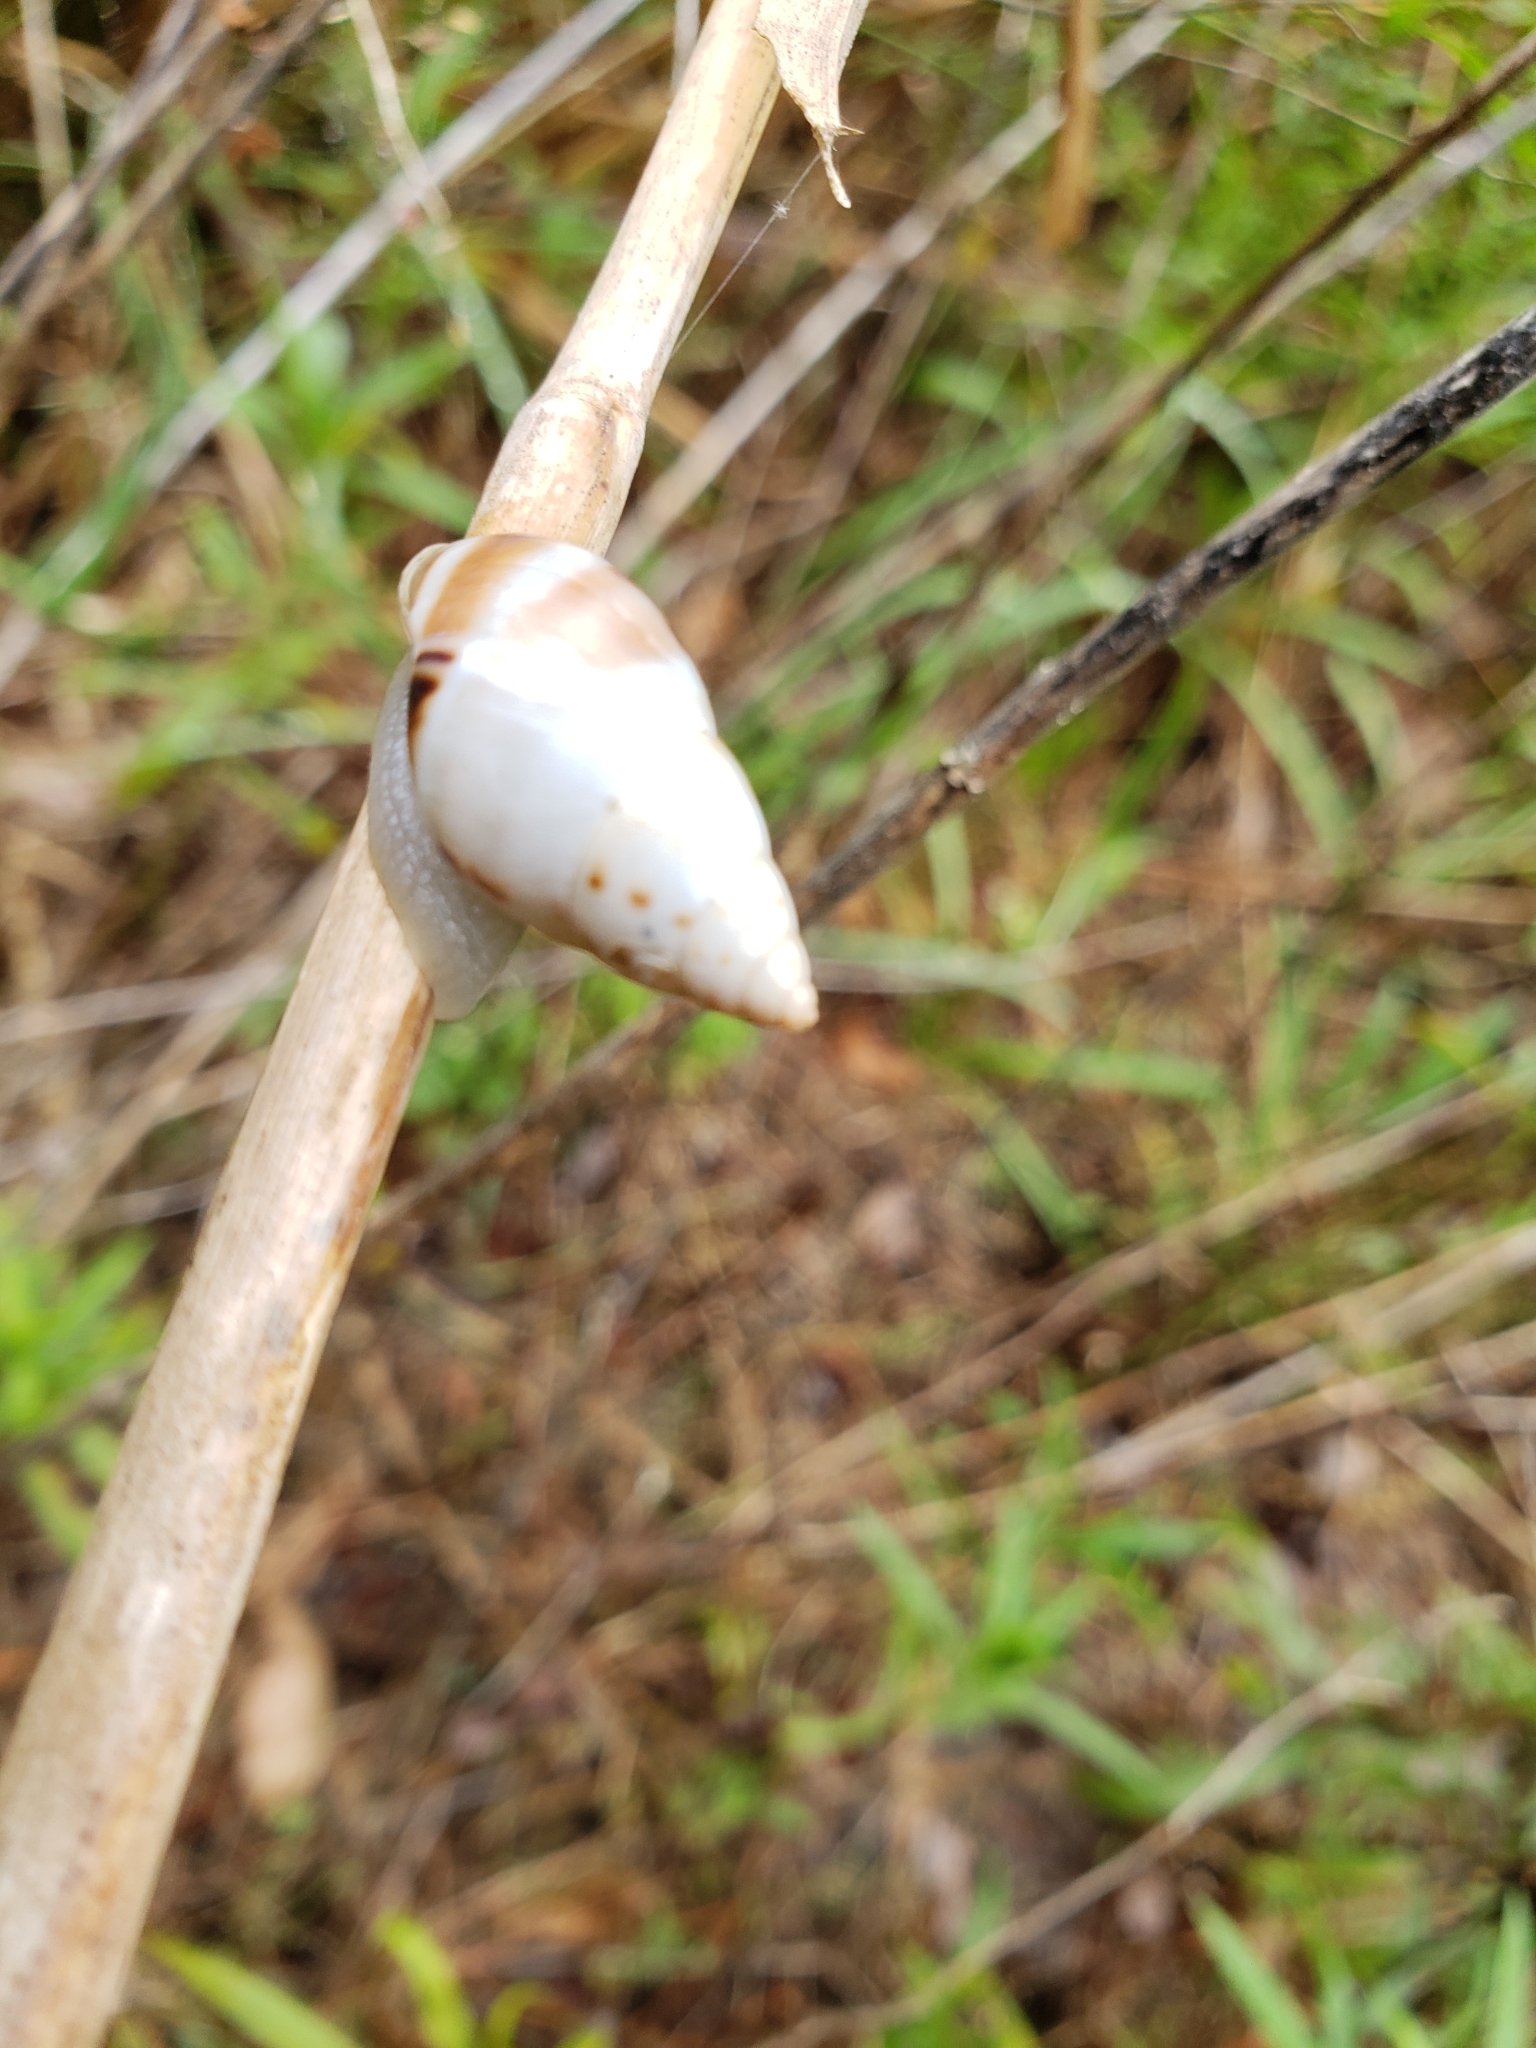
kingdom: Animalia
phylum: Mollusca
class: Gastropoda
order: Stylommatophora
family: Bulimulidae
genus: Drymaeus
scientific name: Drymaeus dormani
